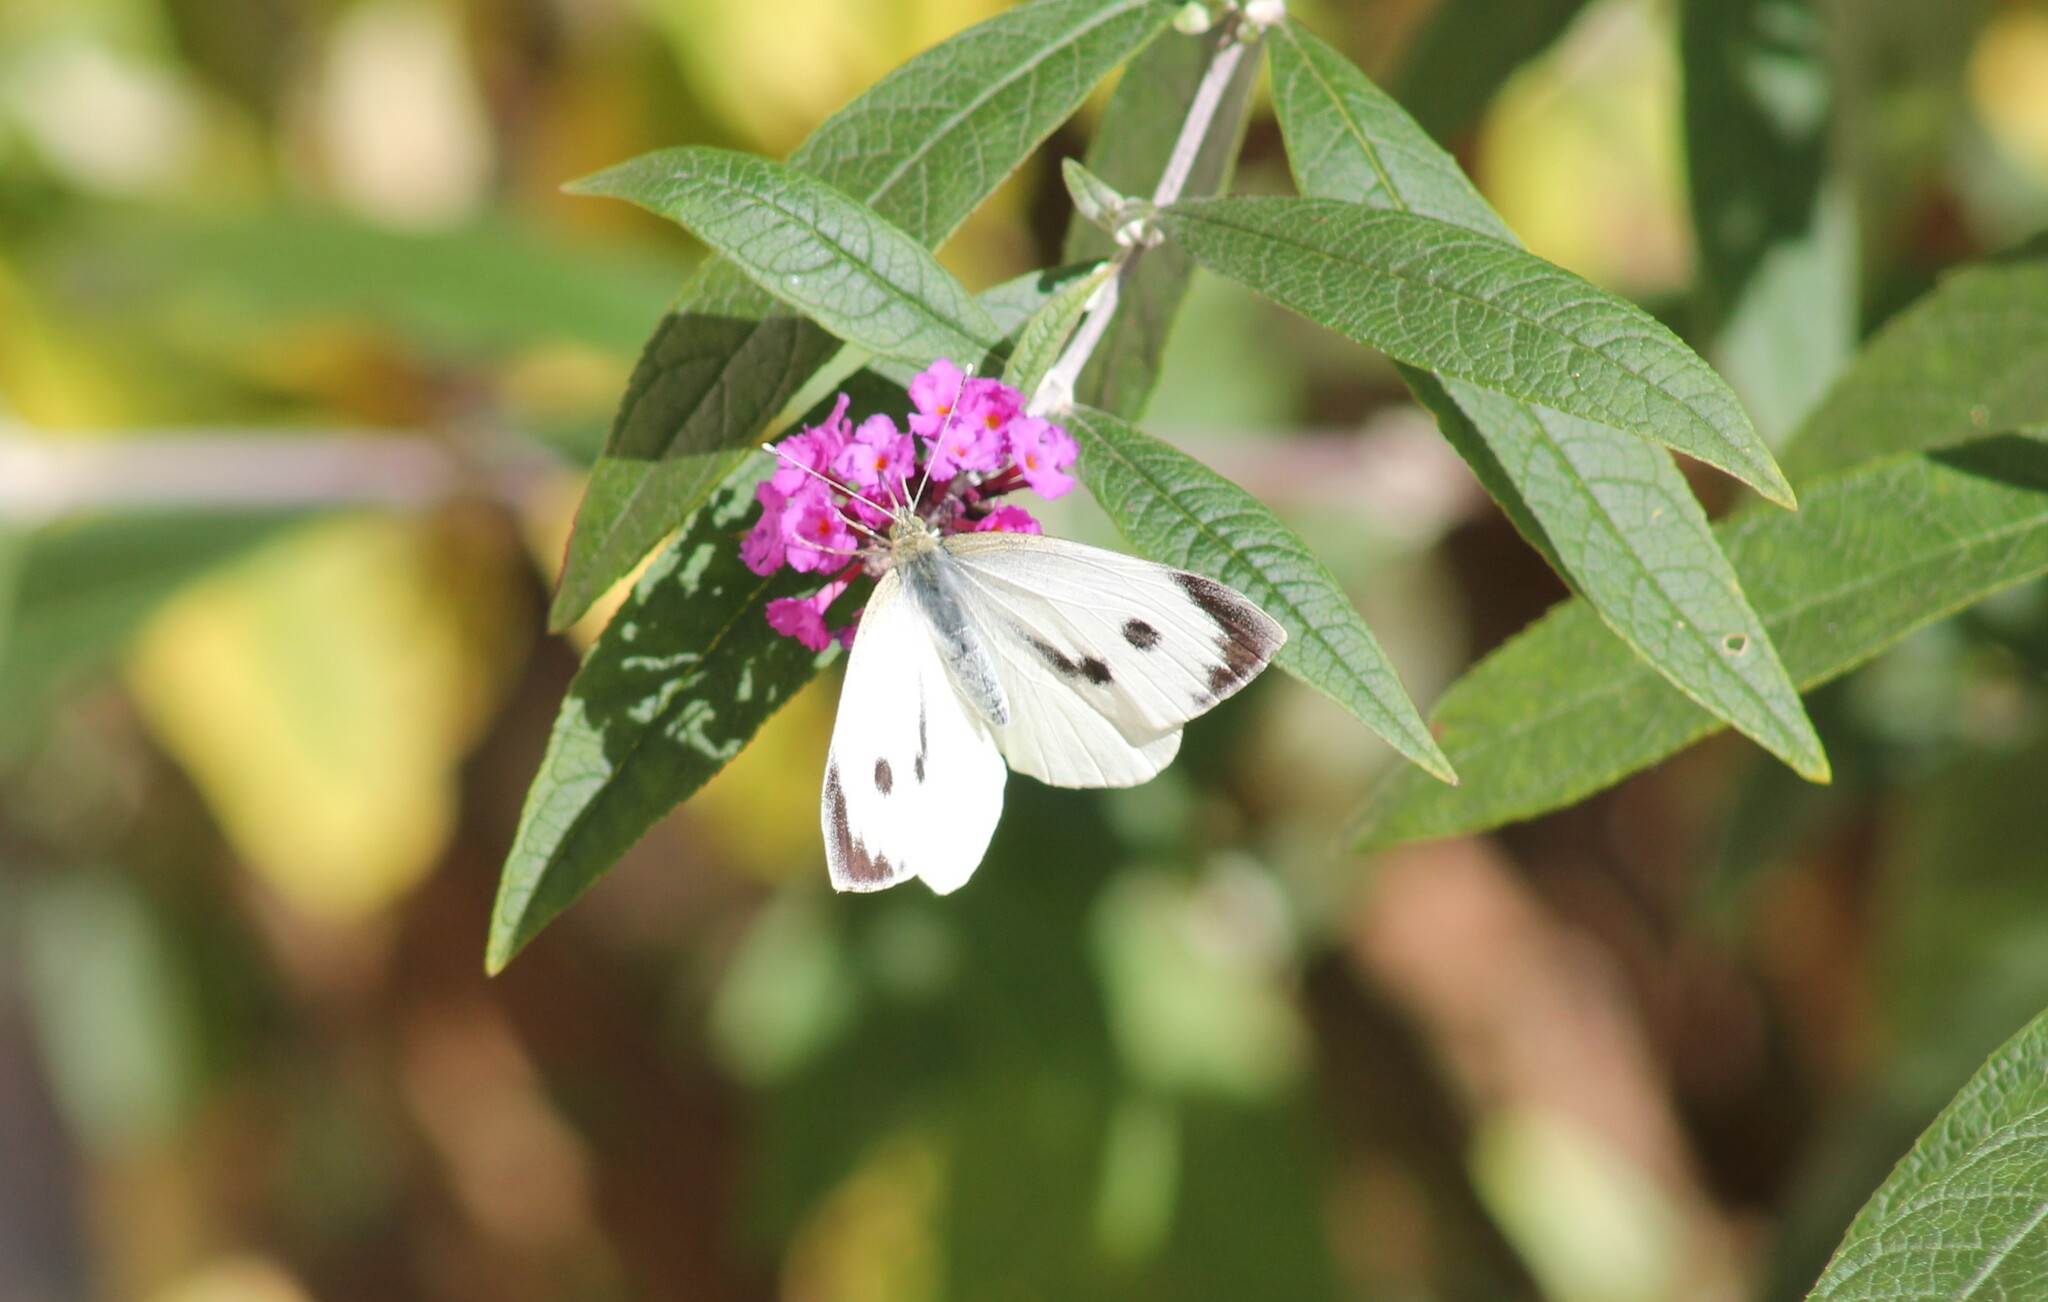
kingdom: Animalia
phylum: Arthropoda
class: Insecta
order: Lepidoptera
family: Pieridae
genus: Pieris
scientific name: Pieris brassicae
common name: Large white
